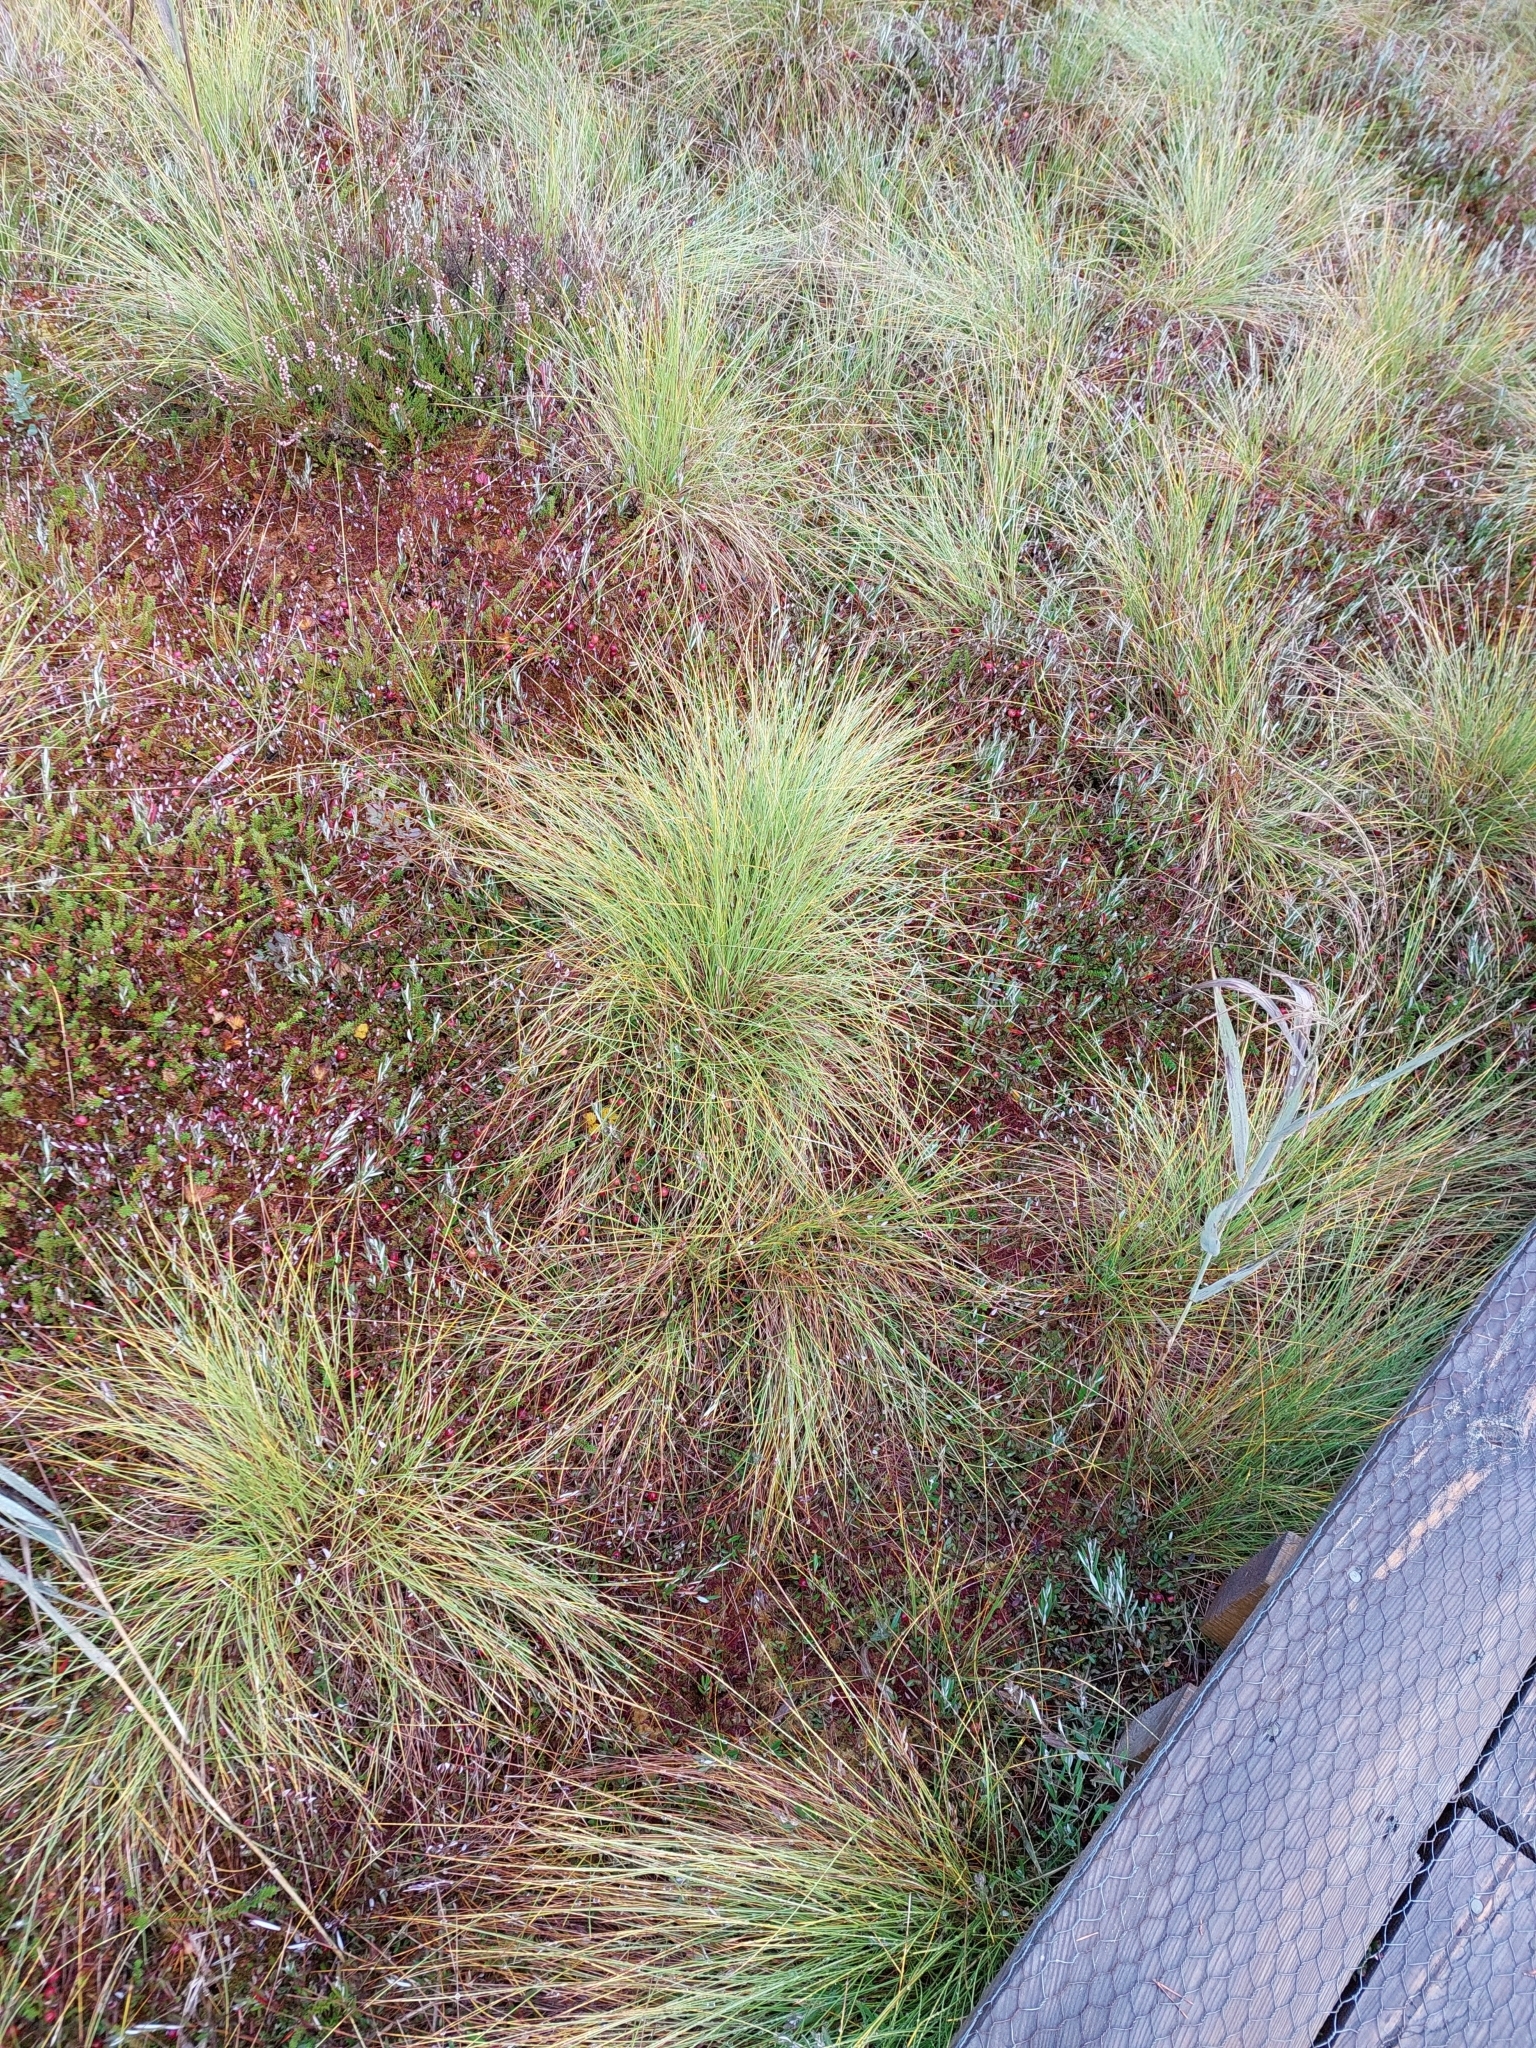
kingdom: Plantae
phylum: Tracheophyta
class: Liliopsida
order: Poales
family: Cyperaceae
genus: Trichophorum
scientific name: Trichophorum cespitosum
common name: Cespitose bulrush
